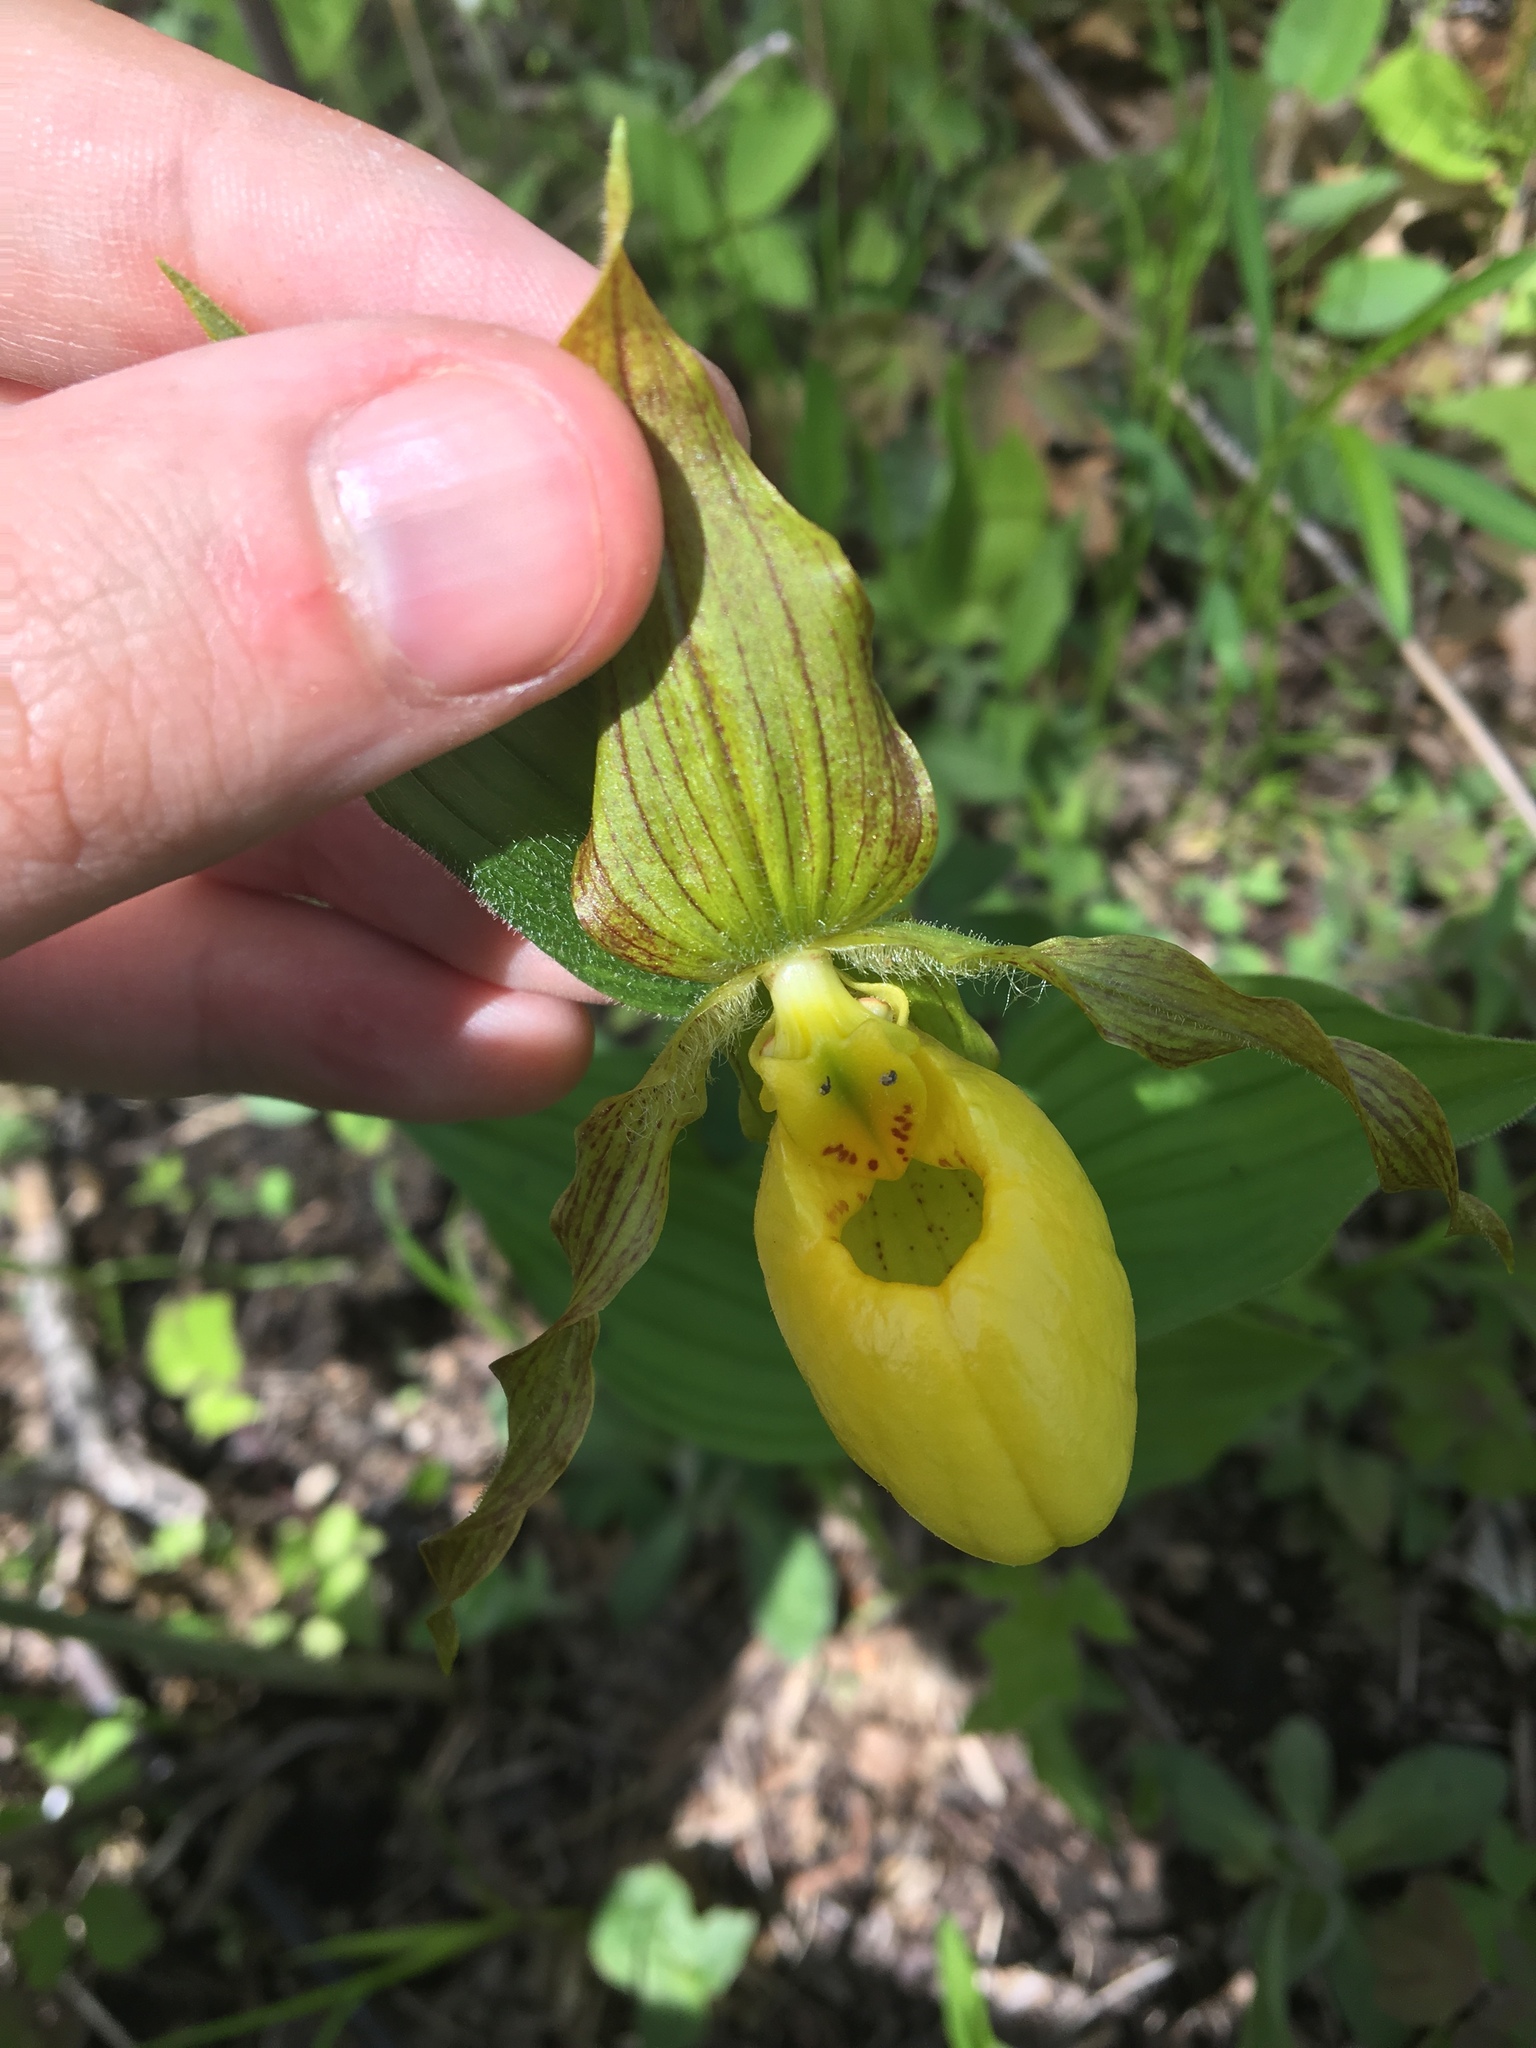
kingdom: Plantae
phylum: Tracheophyta
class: Liliopsida
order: Asparagales
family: Orchidaceae
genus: Cypripedium
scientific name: Cypripedium parviflorum
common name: American yellow lady's-slipper
